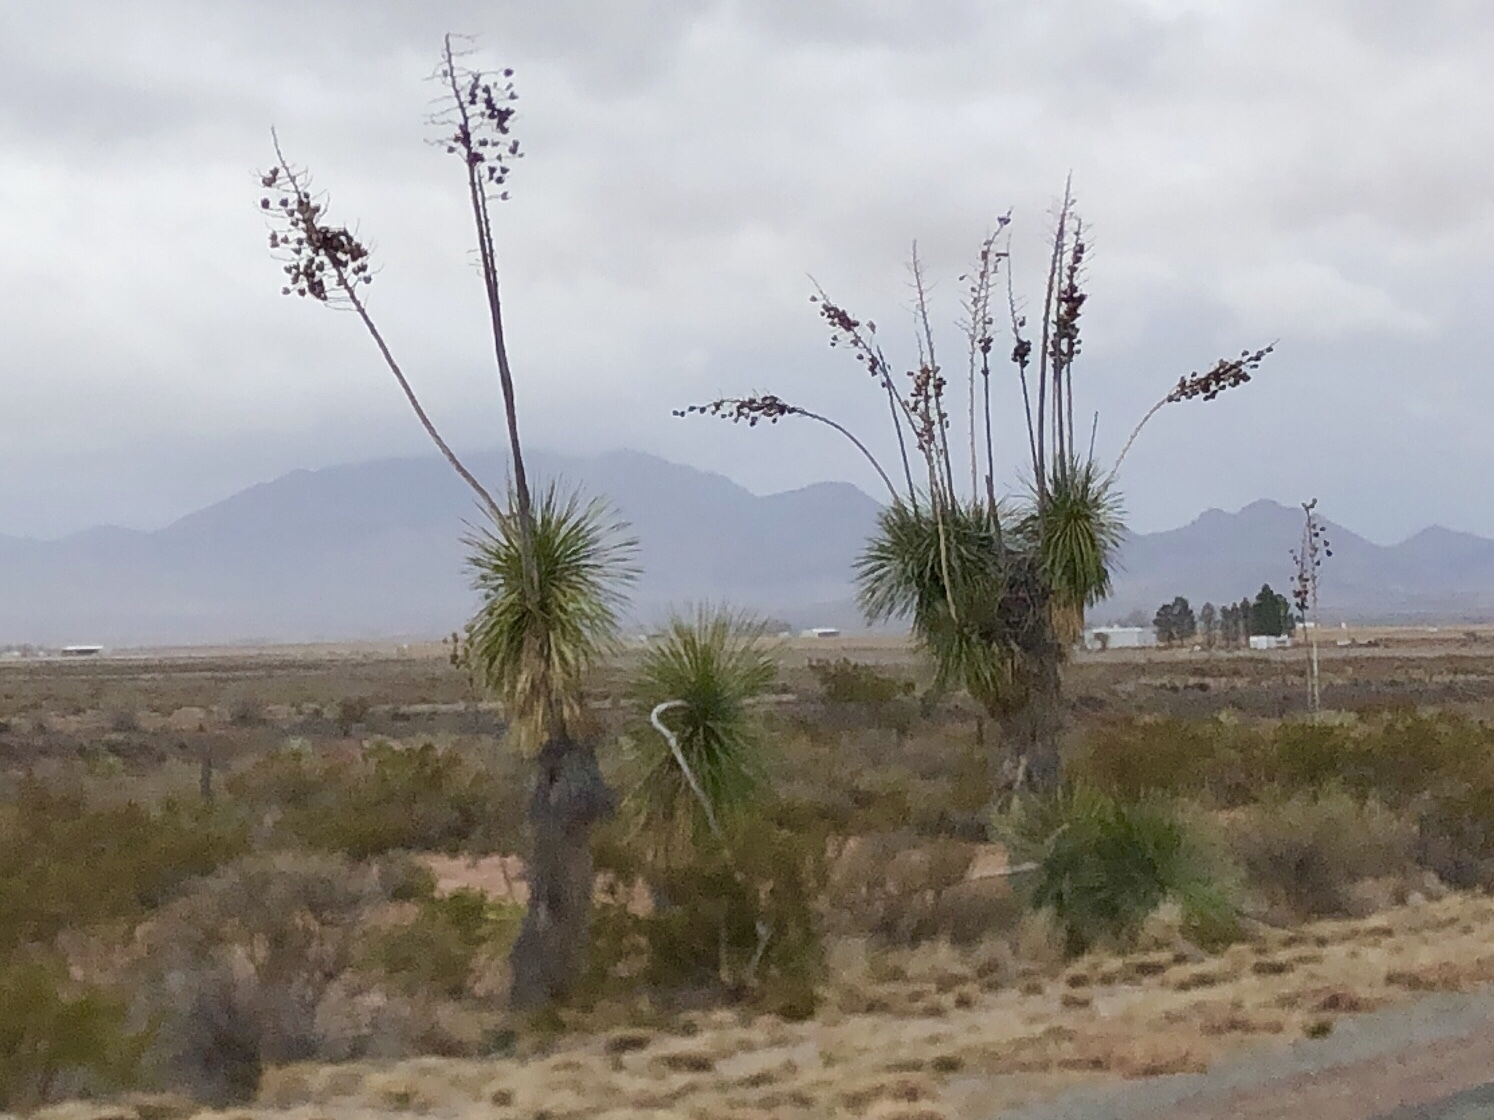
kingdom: Plantae
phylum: Tracheophyta
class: Liliopsida
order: Asparagales
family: Asparagaceae
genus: Yucca
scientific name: Yucca elata
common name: Palmella
